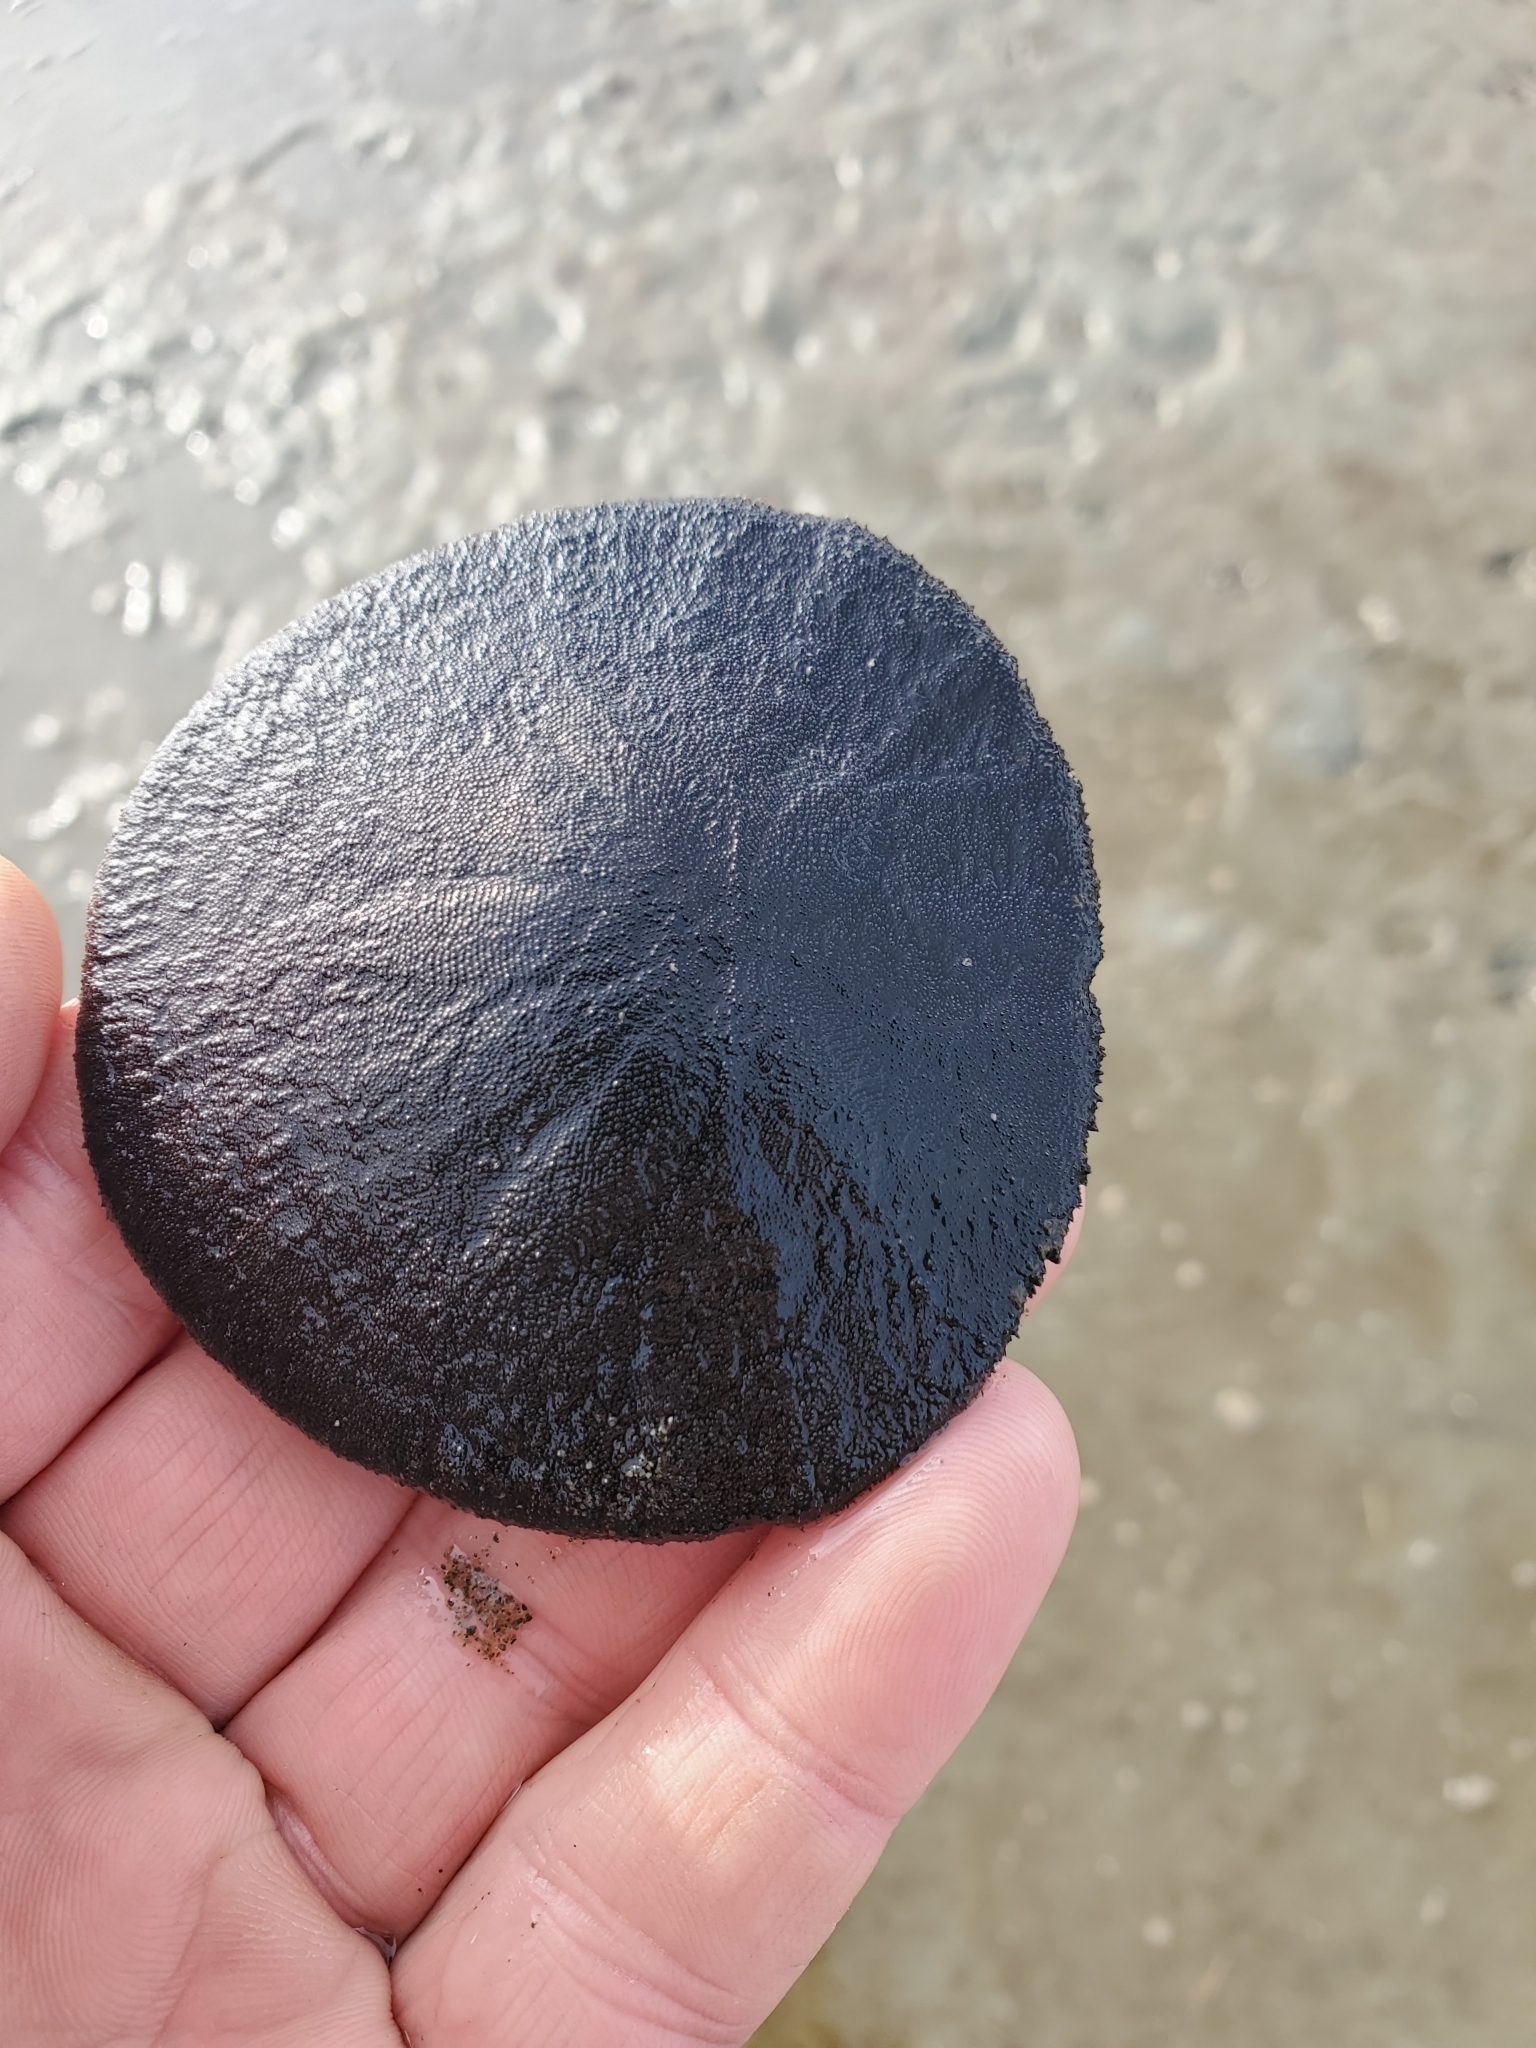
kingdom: Animalia
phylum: Echinodermata
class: Echinoidea
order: Echinolampadacea
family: Dendrasteridae
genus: Dendraster
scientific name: Dendraster excentricus
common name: Eccentric sand dollar sea urchin
